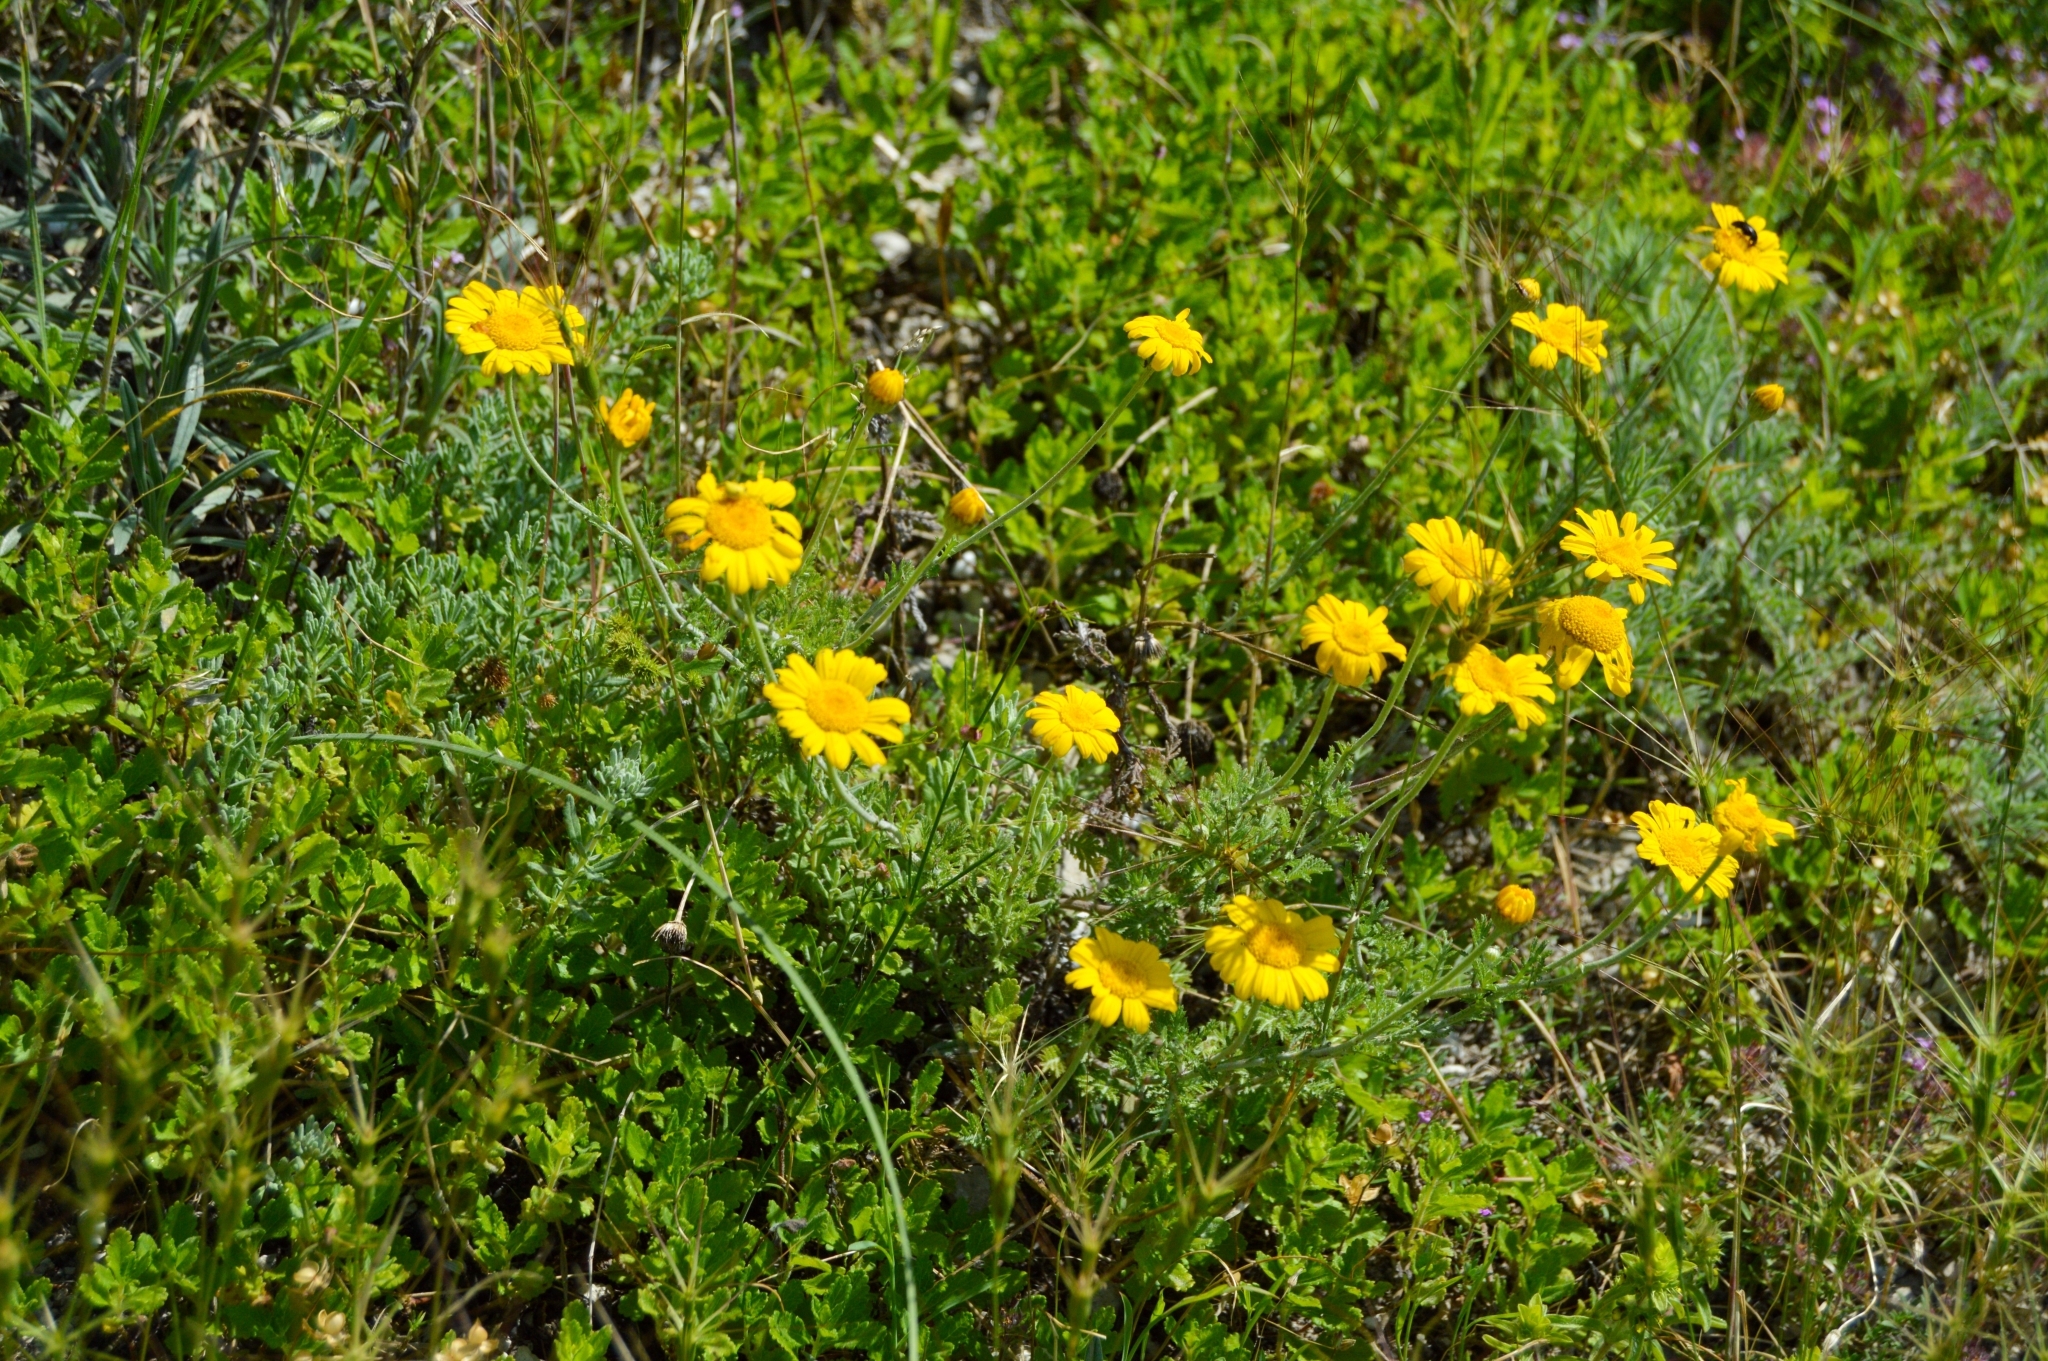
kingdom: Plantae
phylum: Tracheophyta
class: Magnoliopsida
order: Asterales
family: Asteraceae
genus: Cota
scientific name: Cota tinctoria
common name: Golden chamomile
